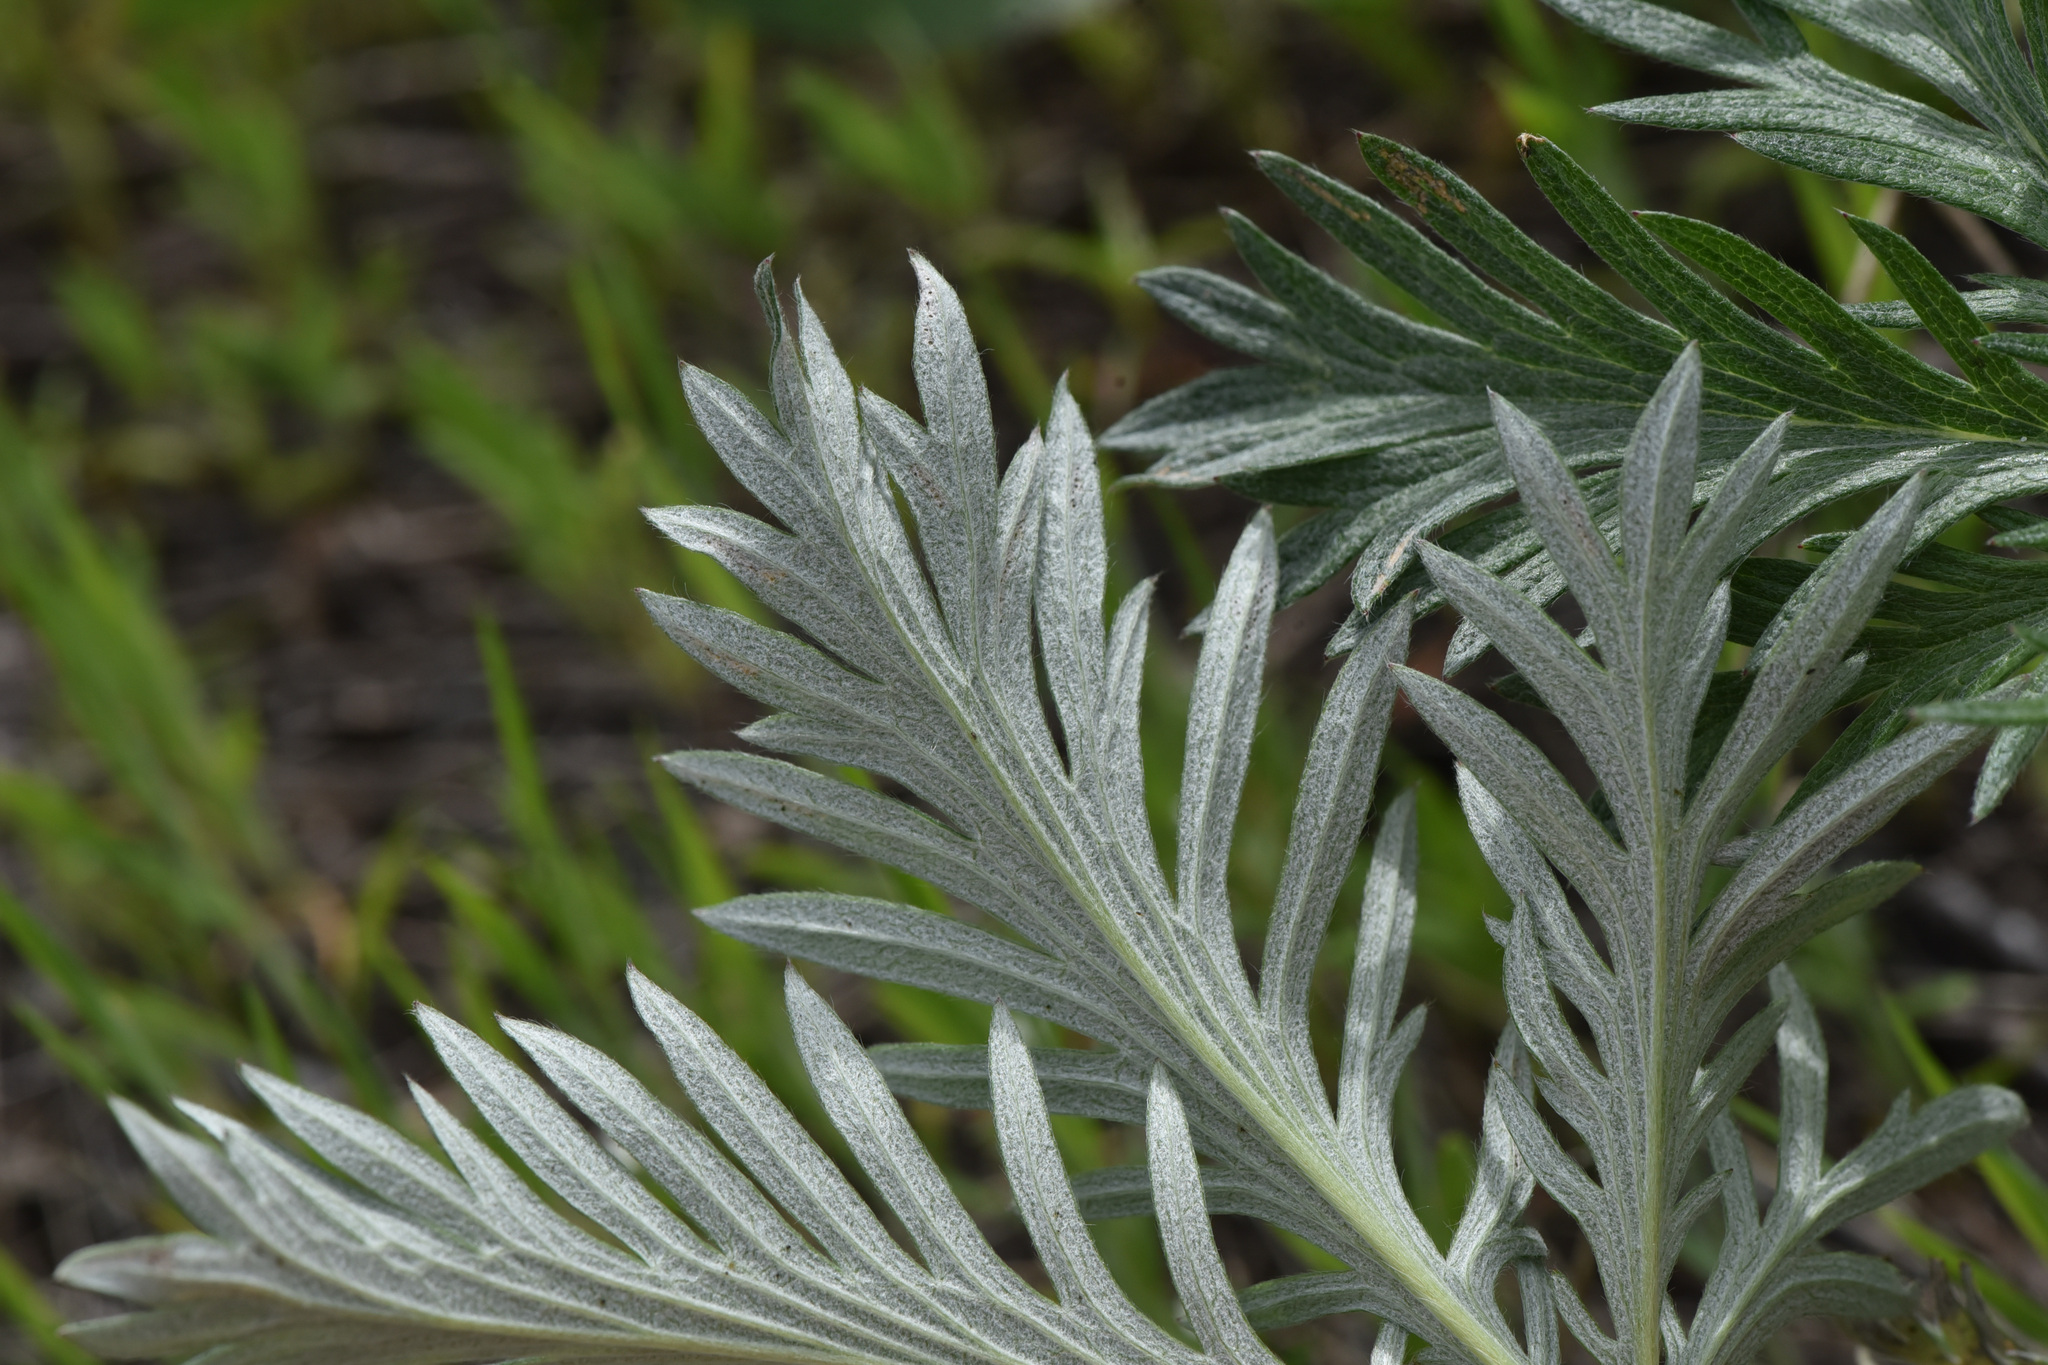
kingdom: Plantae
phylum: Tracheophyta
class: Magnoliopsida
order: Rosales
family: Rosaceae
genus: Potentilla
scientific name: Potentilla gracilis
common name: Graceful cinquefoil
